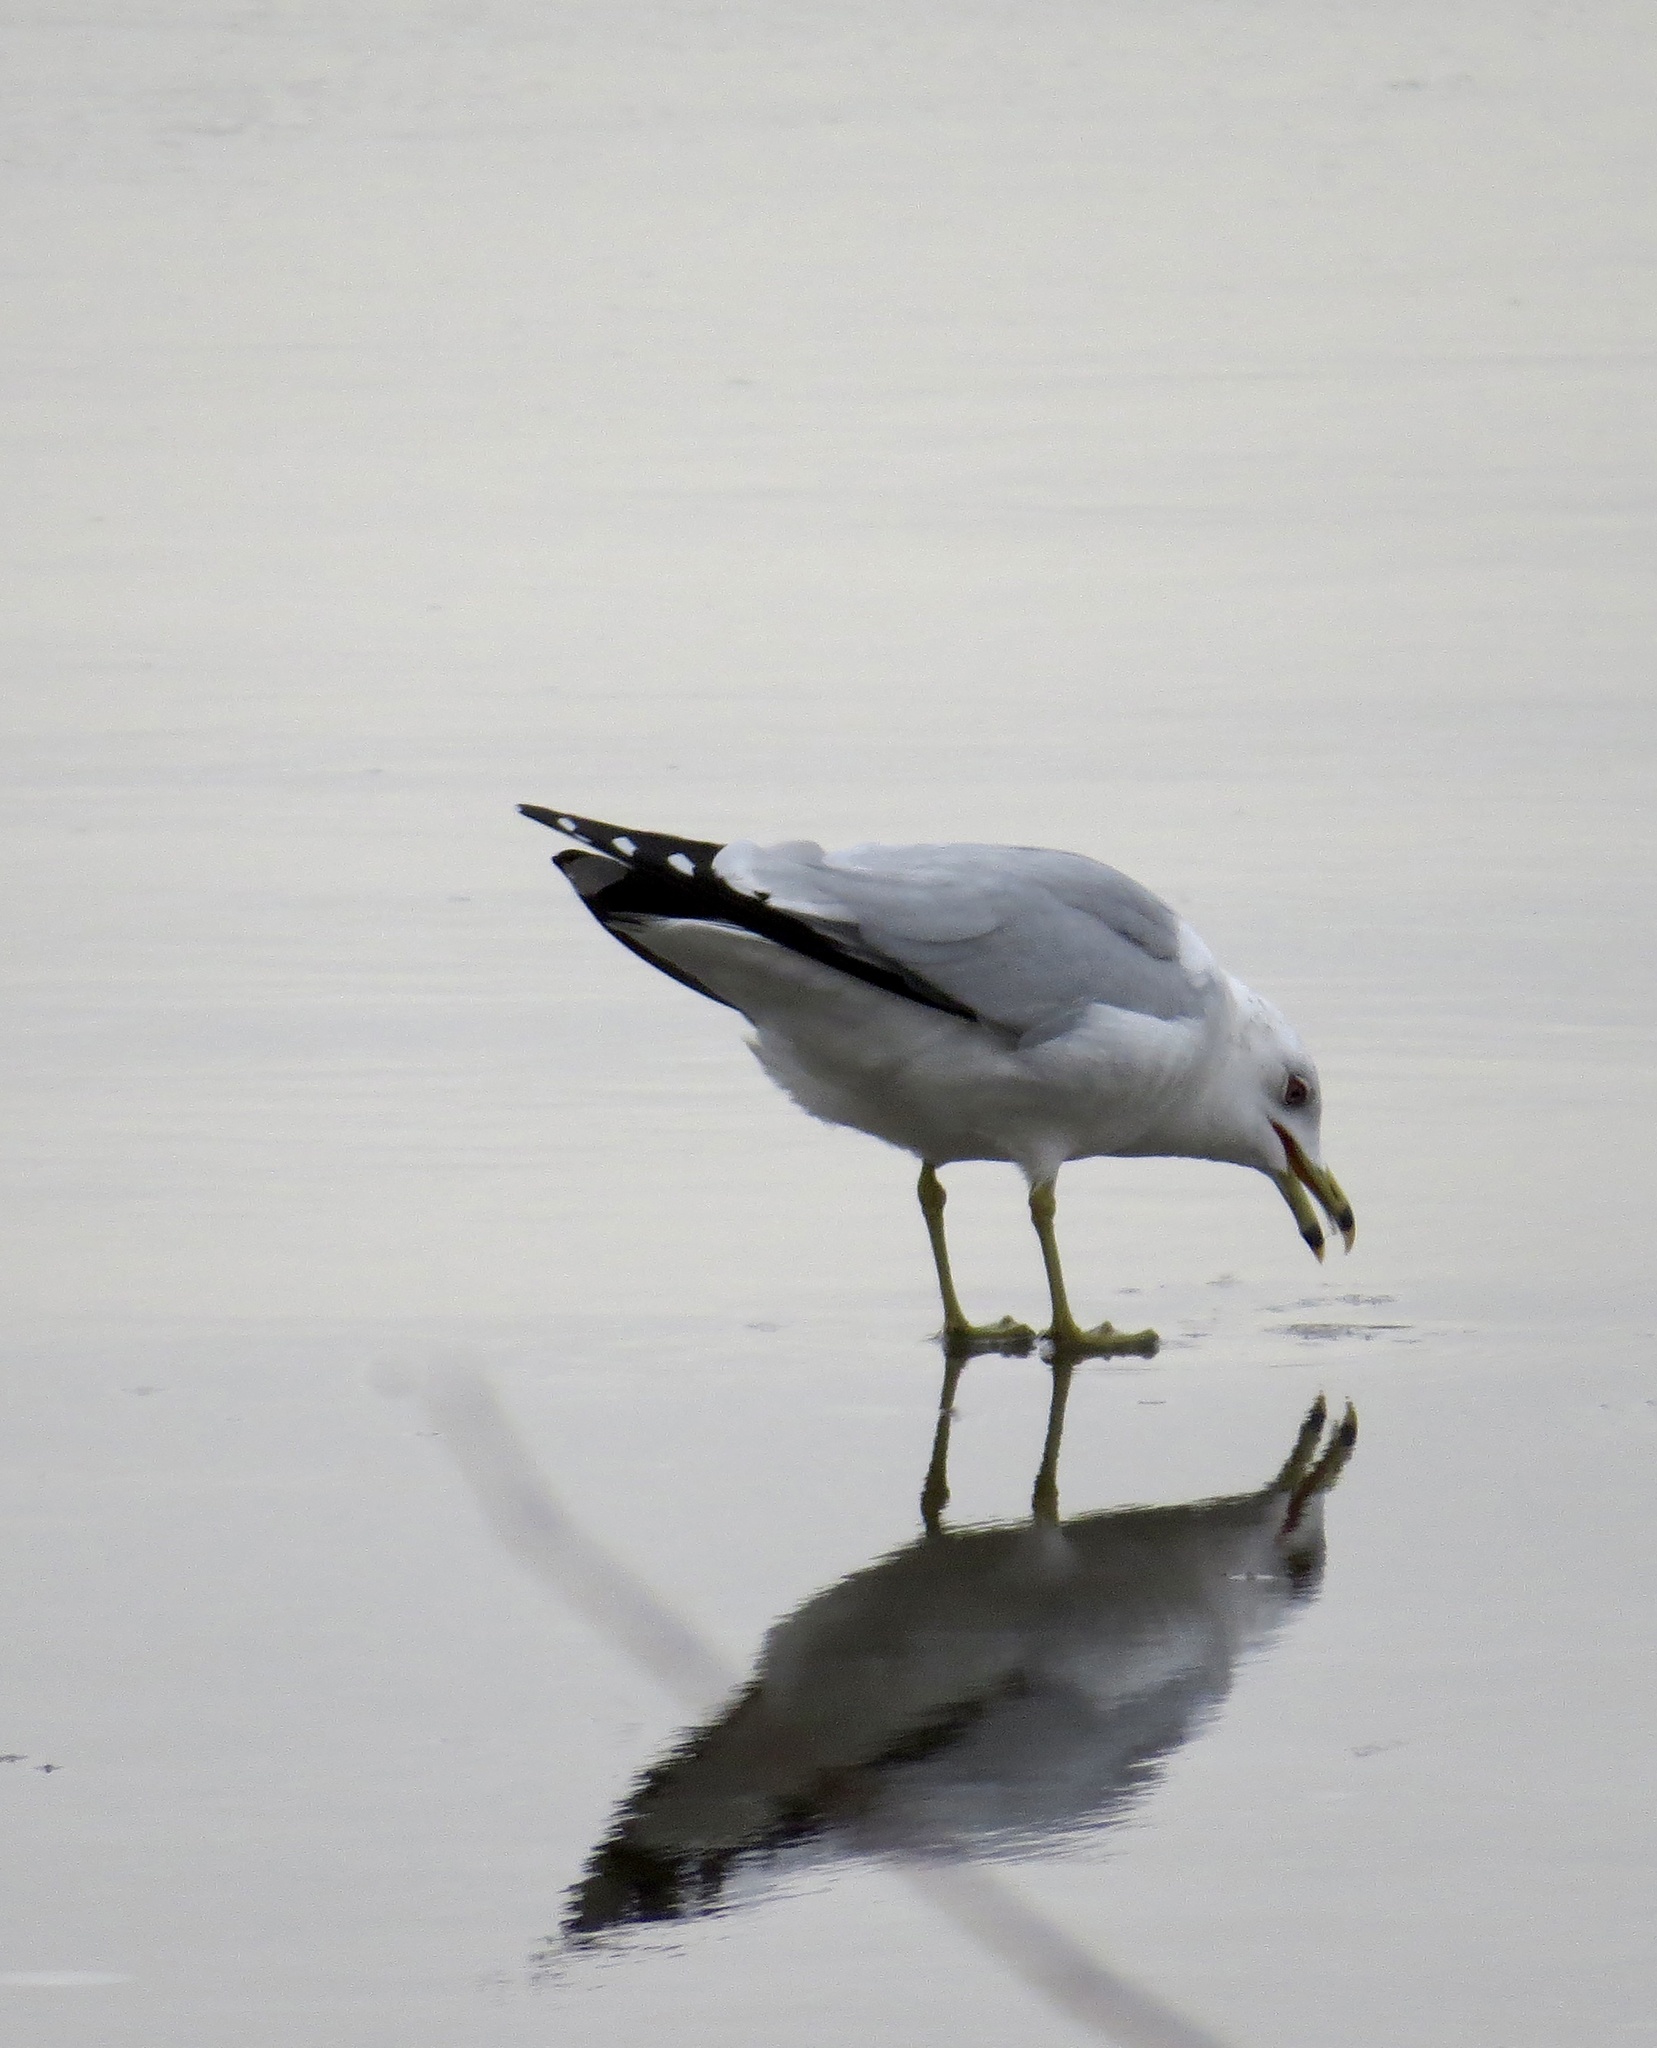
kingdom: Animalia
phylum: Chordata
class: Aves
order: Charadriiformes
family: Laridae
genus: Larus
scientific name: Larus delawarensis
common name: Ring-billed gull
